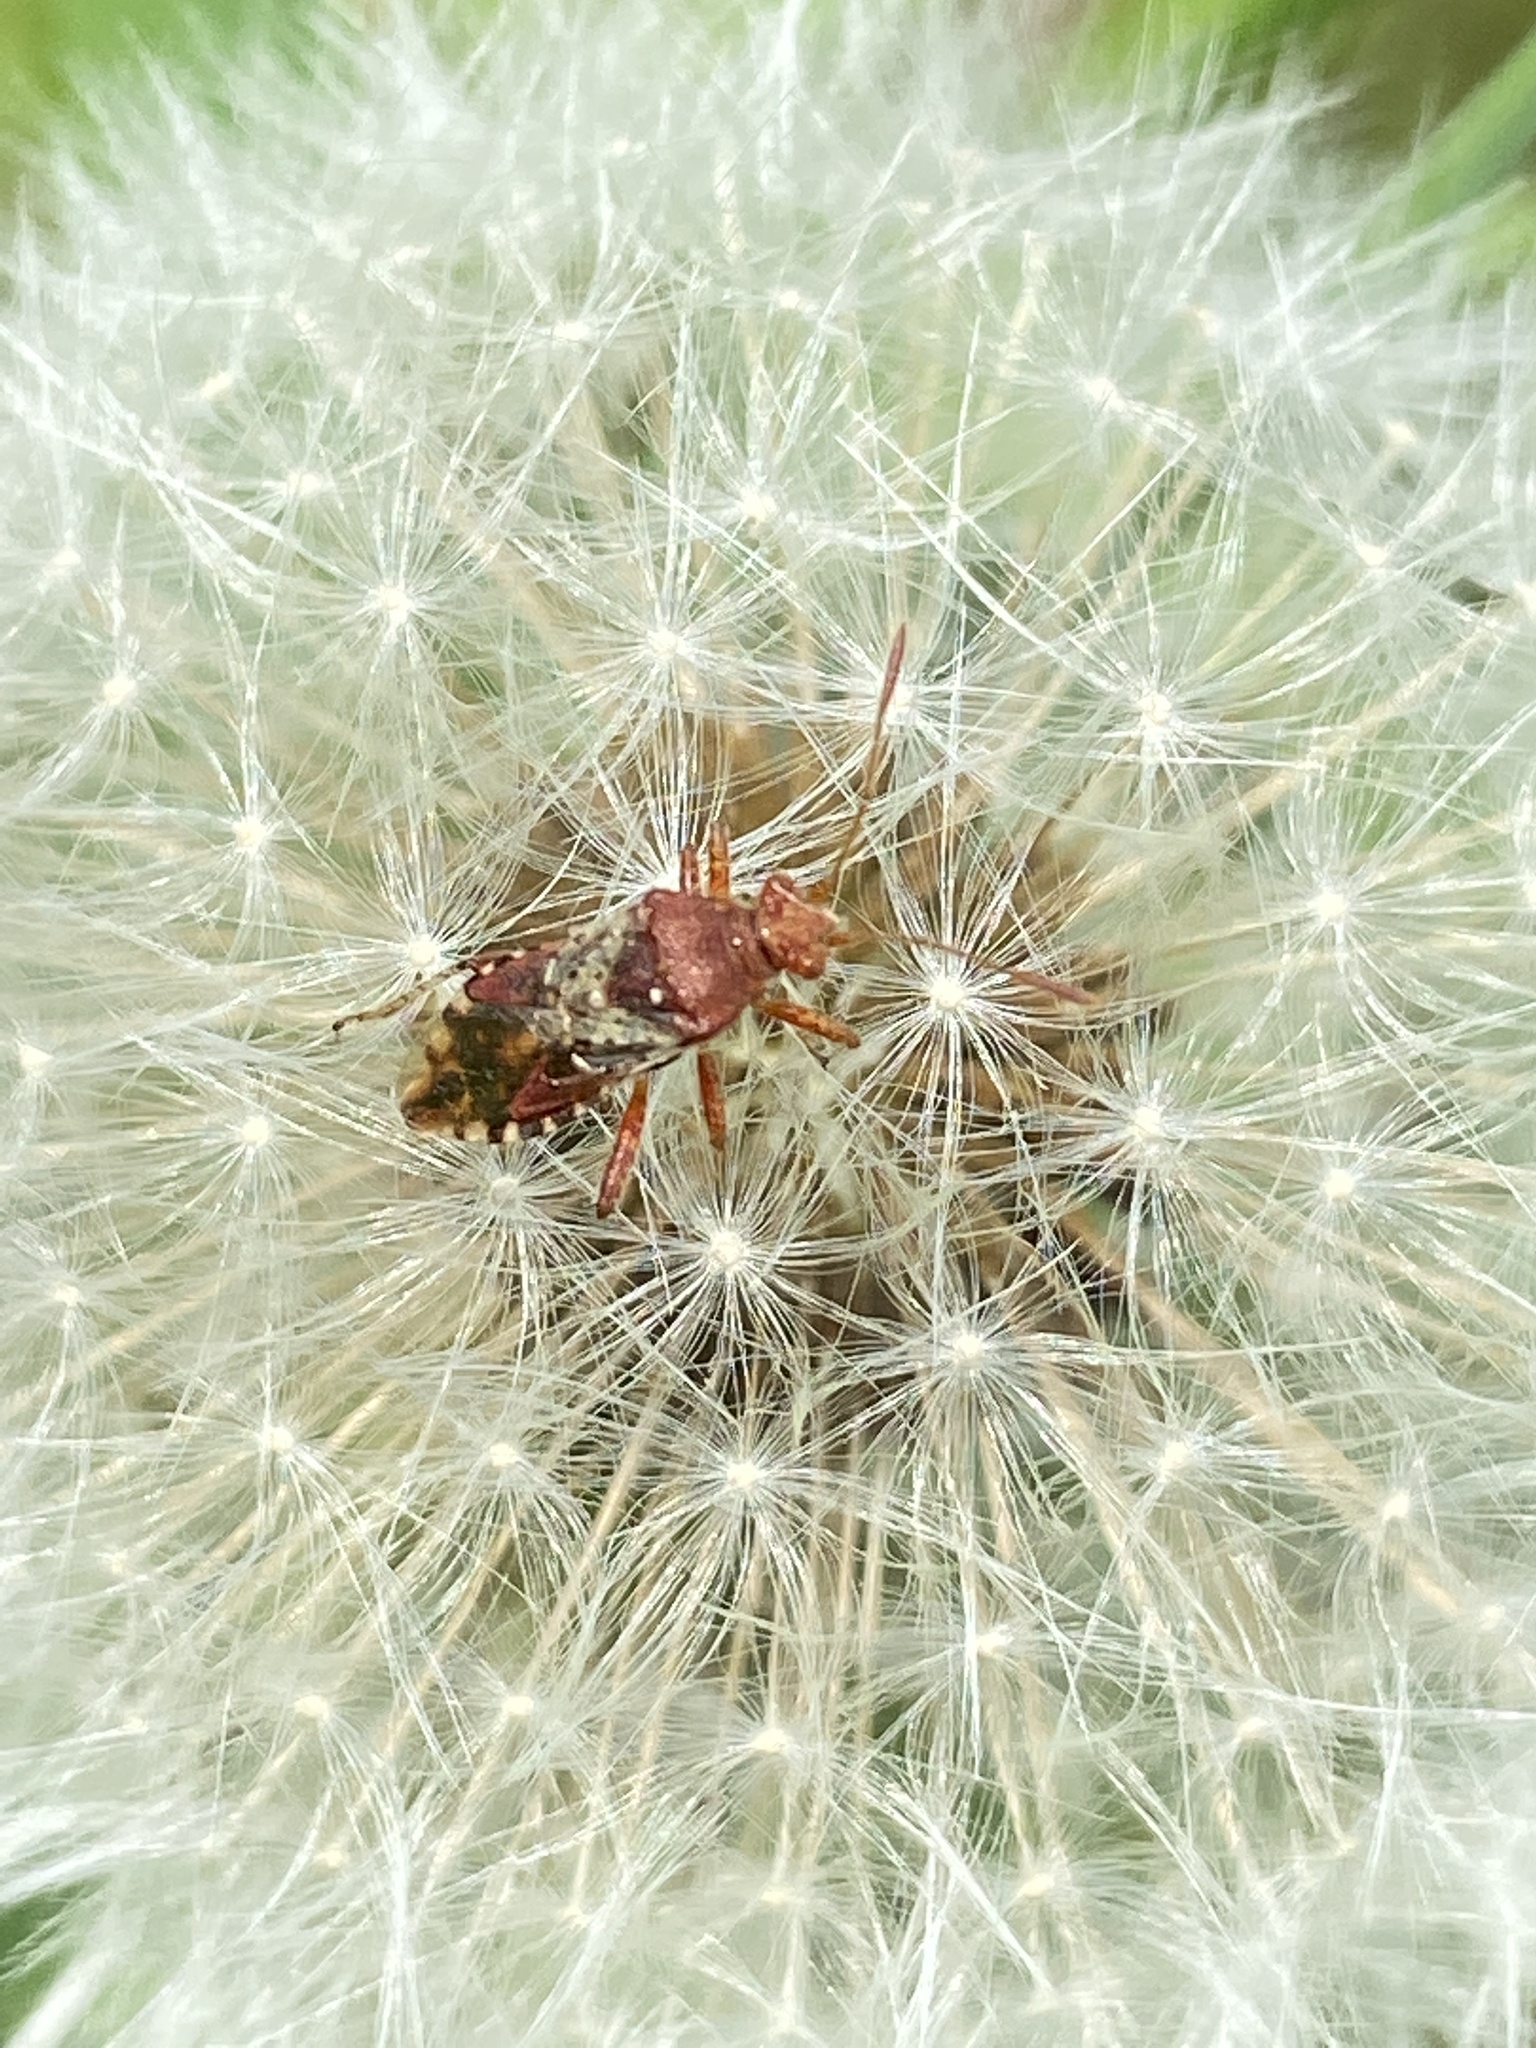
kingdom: Animalia
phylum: Arthropoda
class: Insecta
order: Hemiptera
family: Rhopalidae
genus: Rhopalus
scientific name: Rhopalus subrufus
